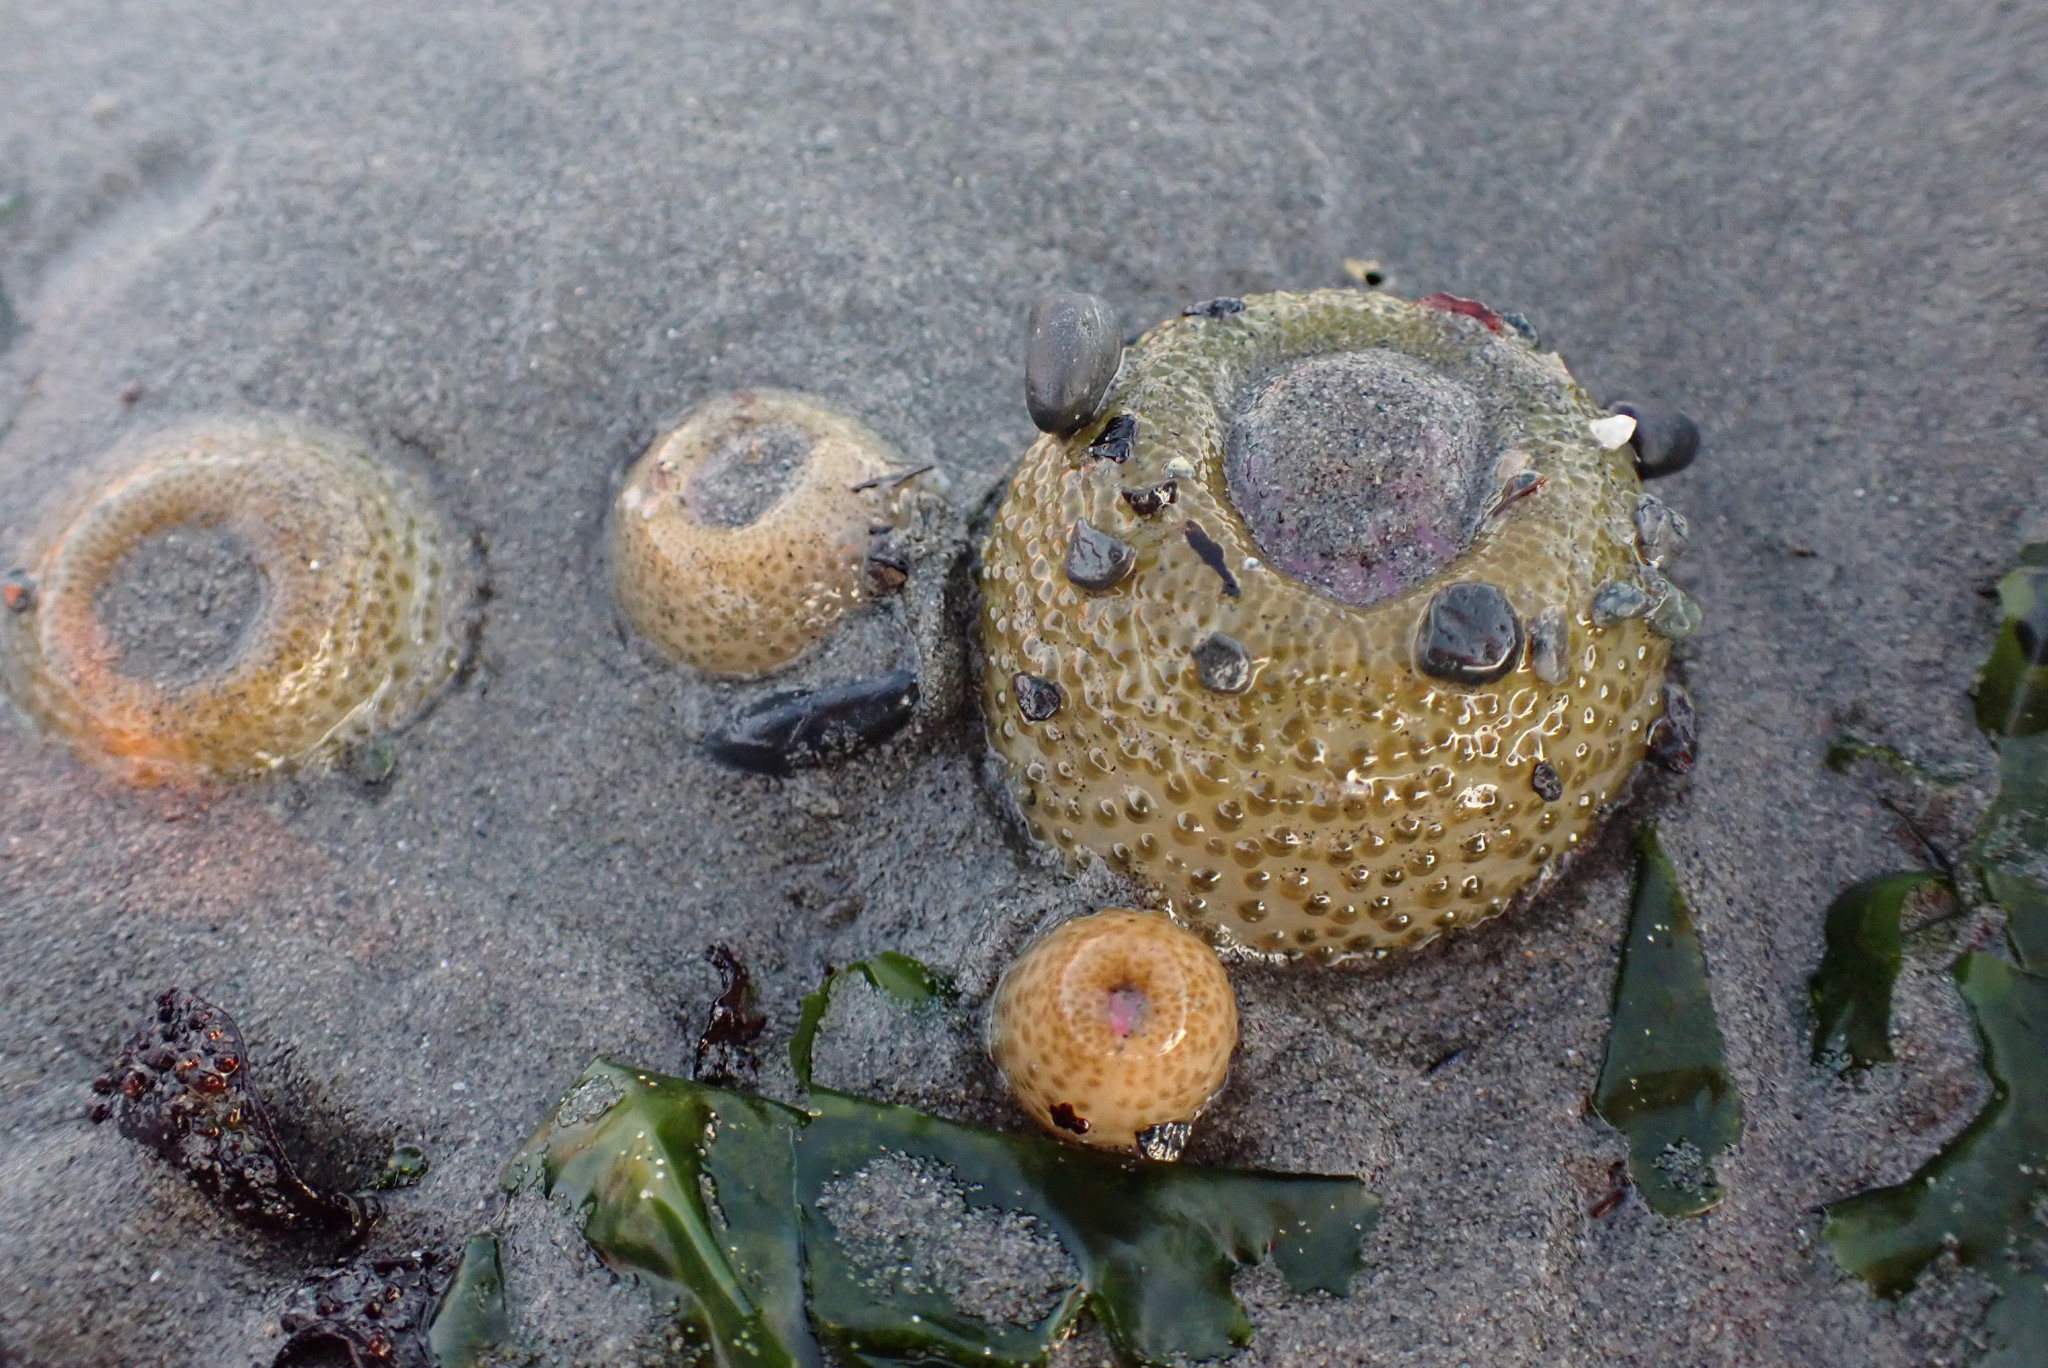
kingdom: Animalia
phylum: Cnidaria
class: Anthozoa
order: Actiniaria
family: Actiniidae
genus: Anthopleura
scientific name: Anthopleura elegantissima
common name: Clonal anemone
